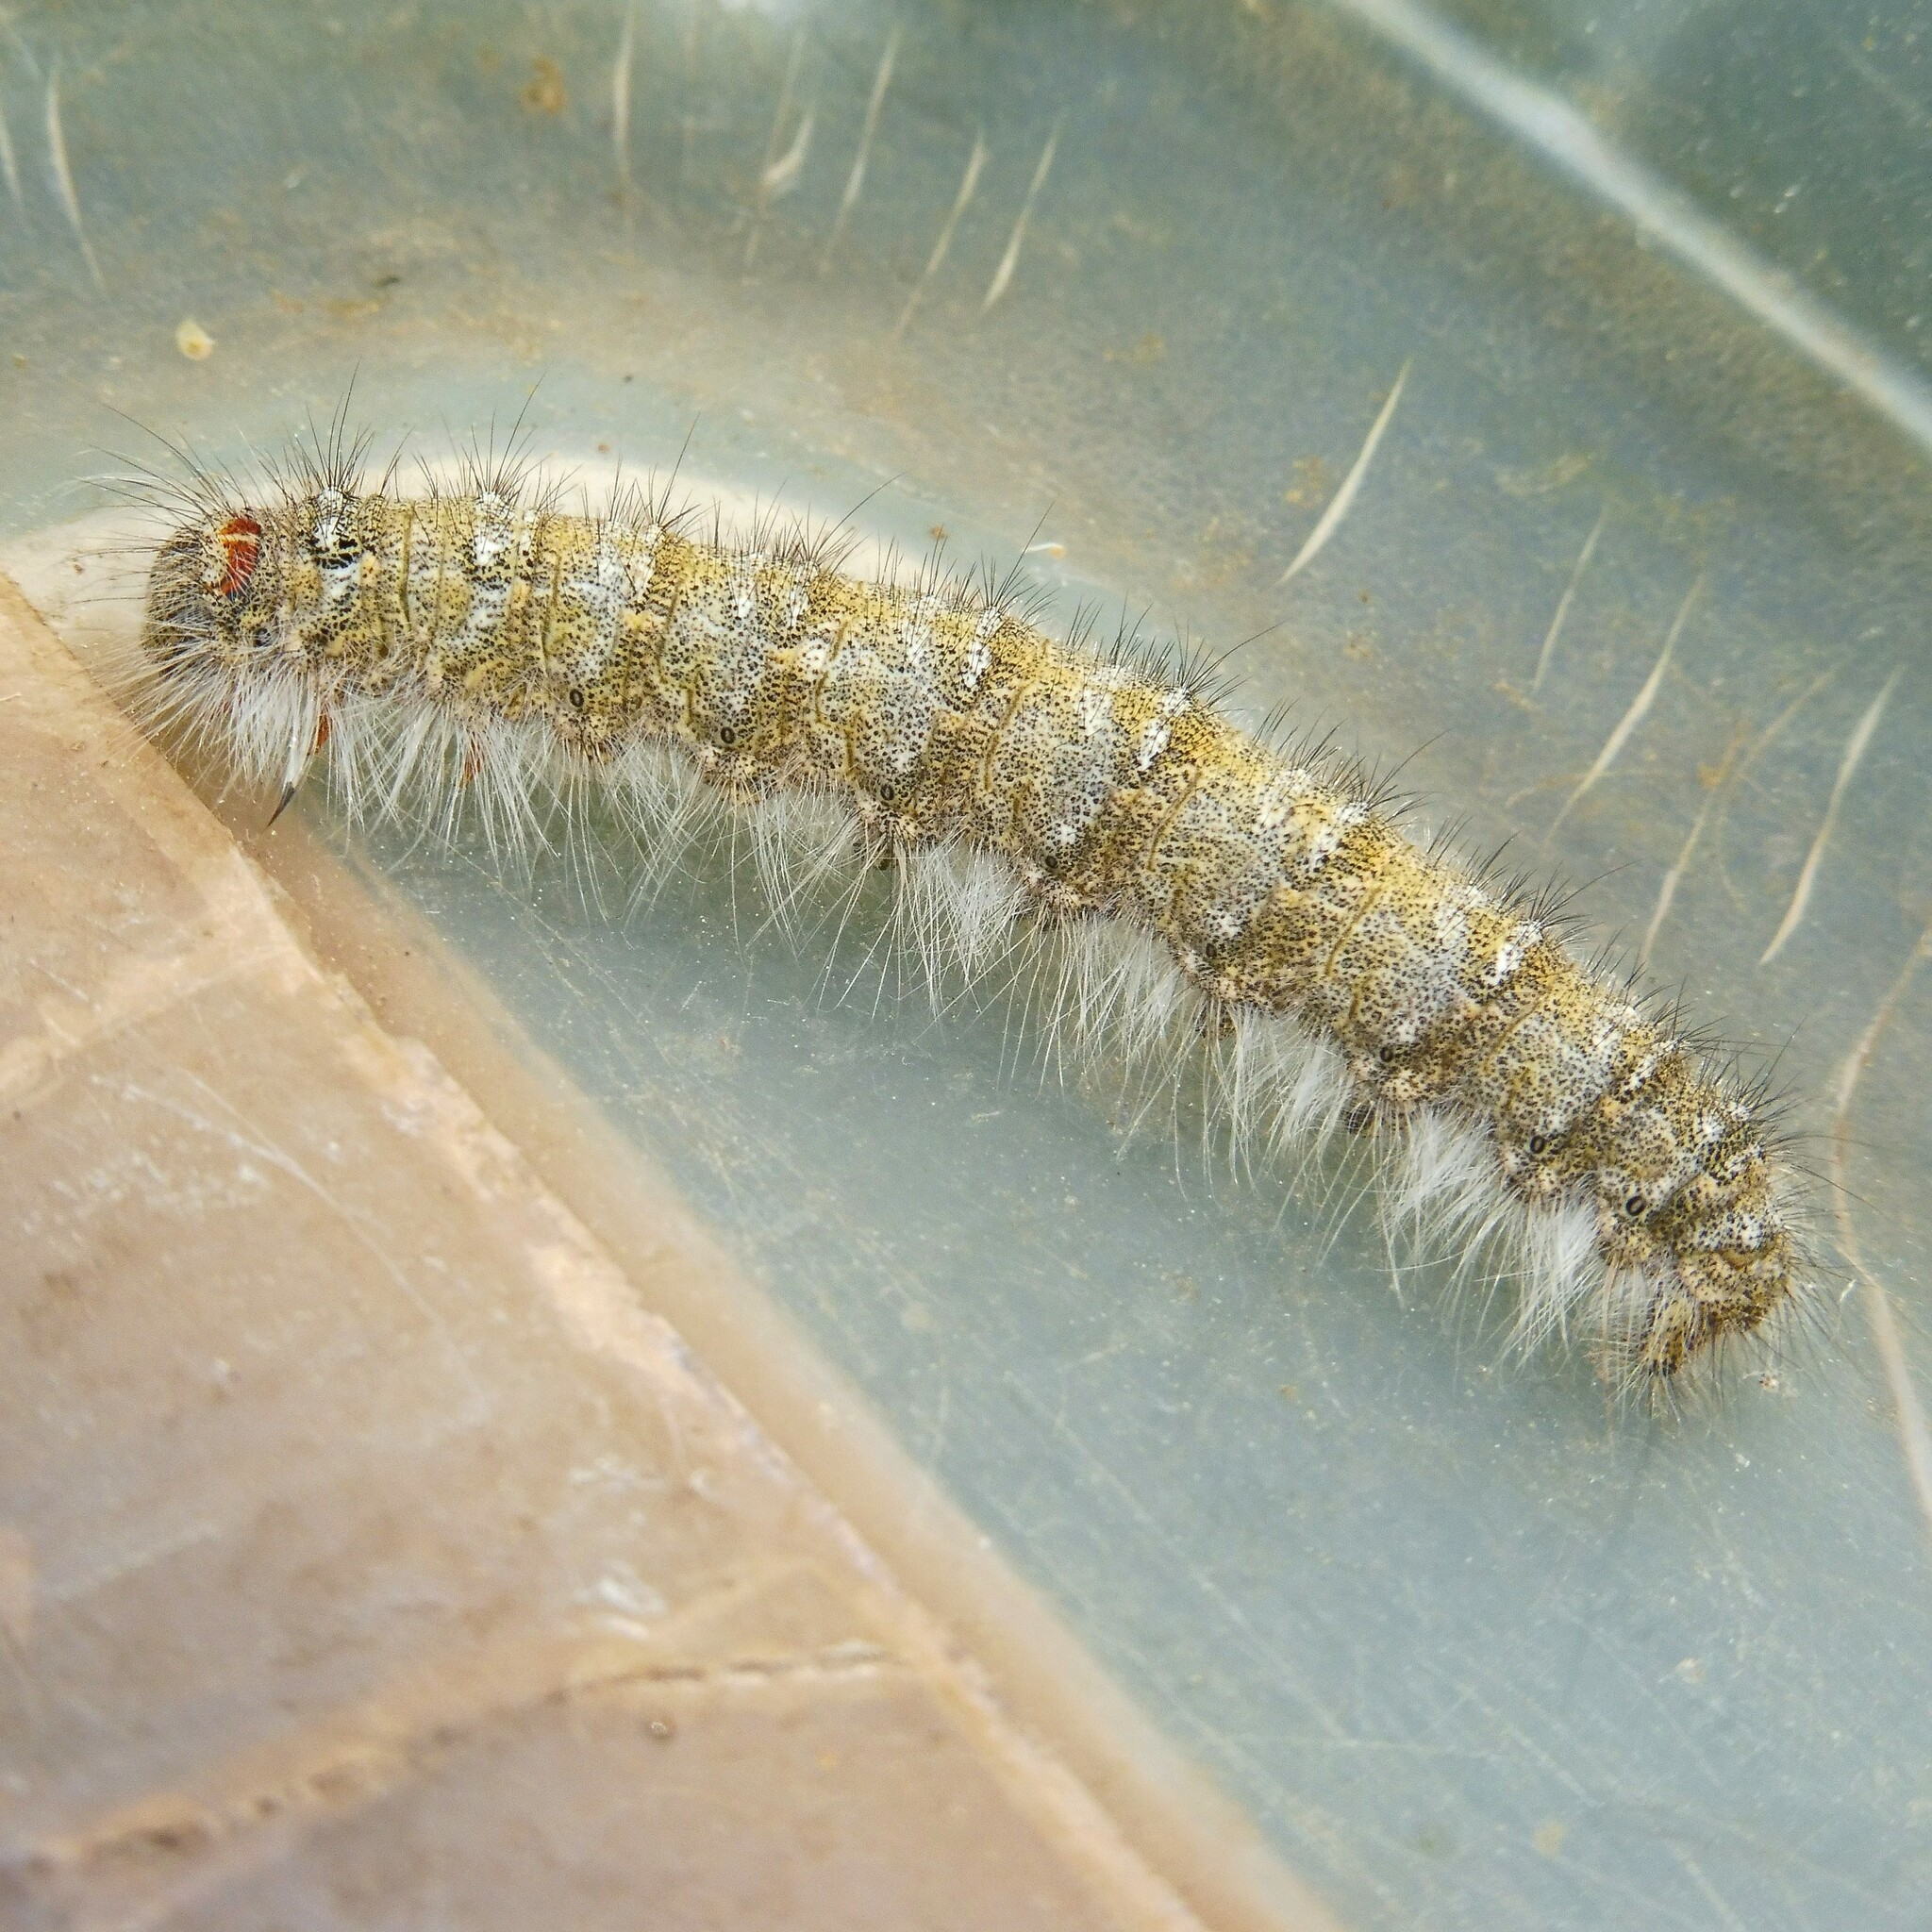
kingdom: Animalia
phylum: Arthropoda
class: Insecta
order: Lepidoptera
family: Lasiocampidae
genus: Poecilocampa
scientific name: Poecilocampa populi
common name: December moth
